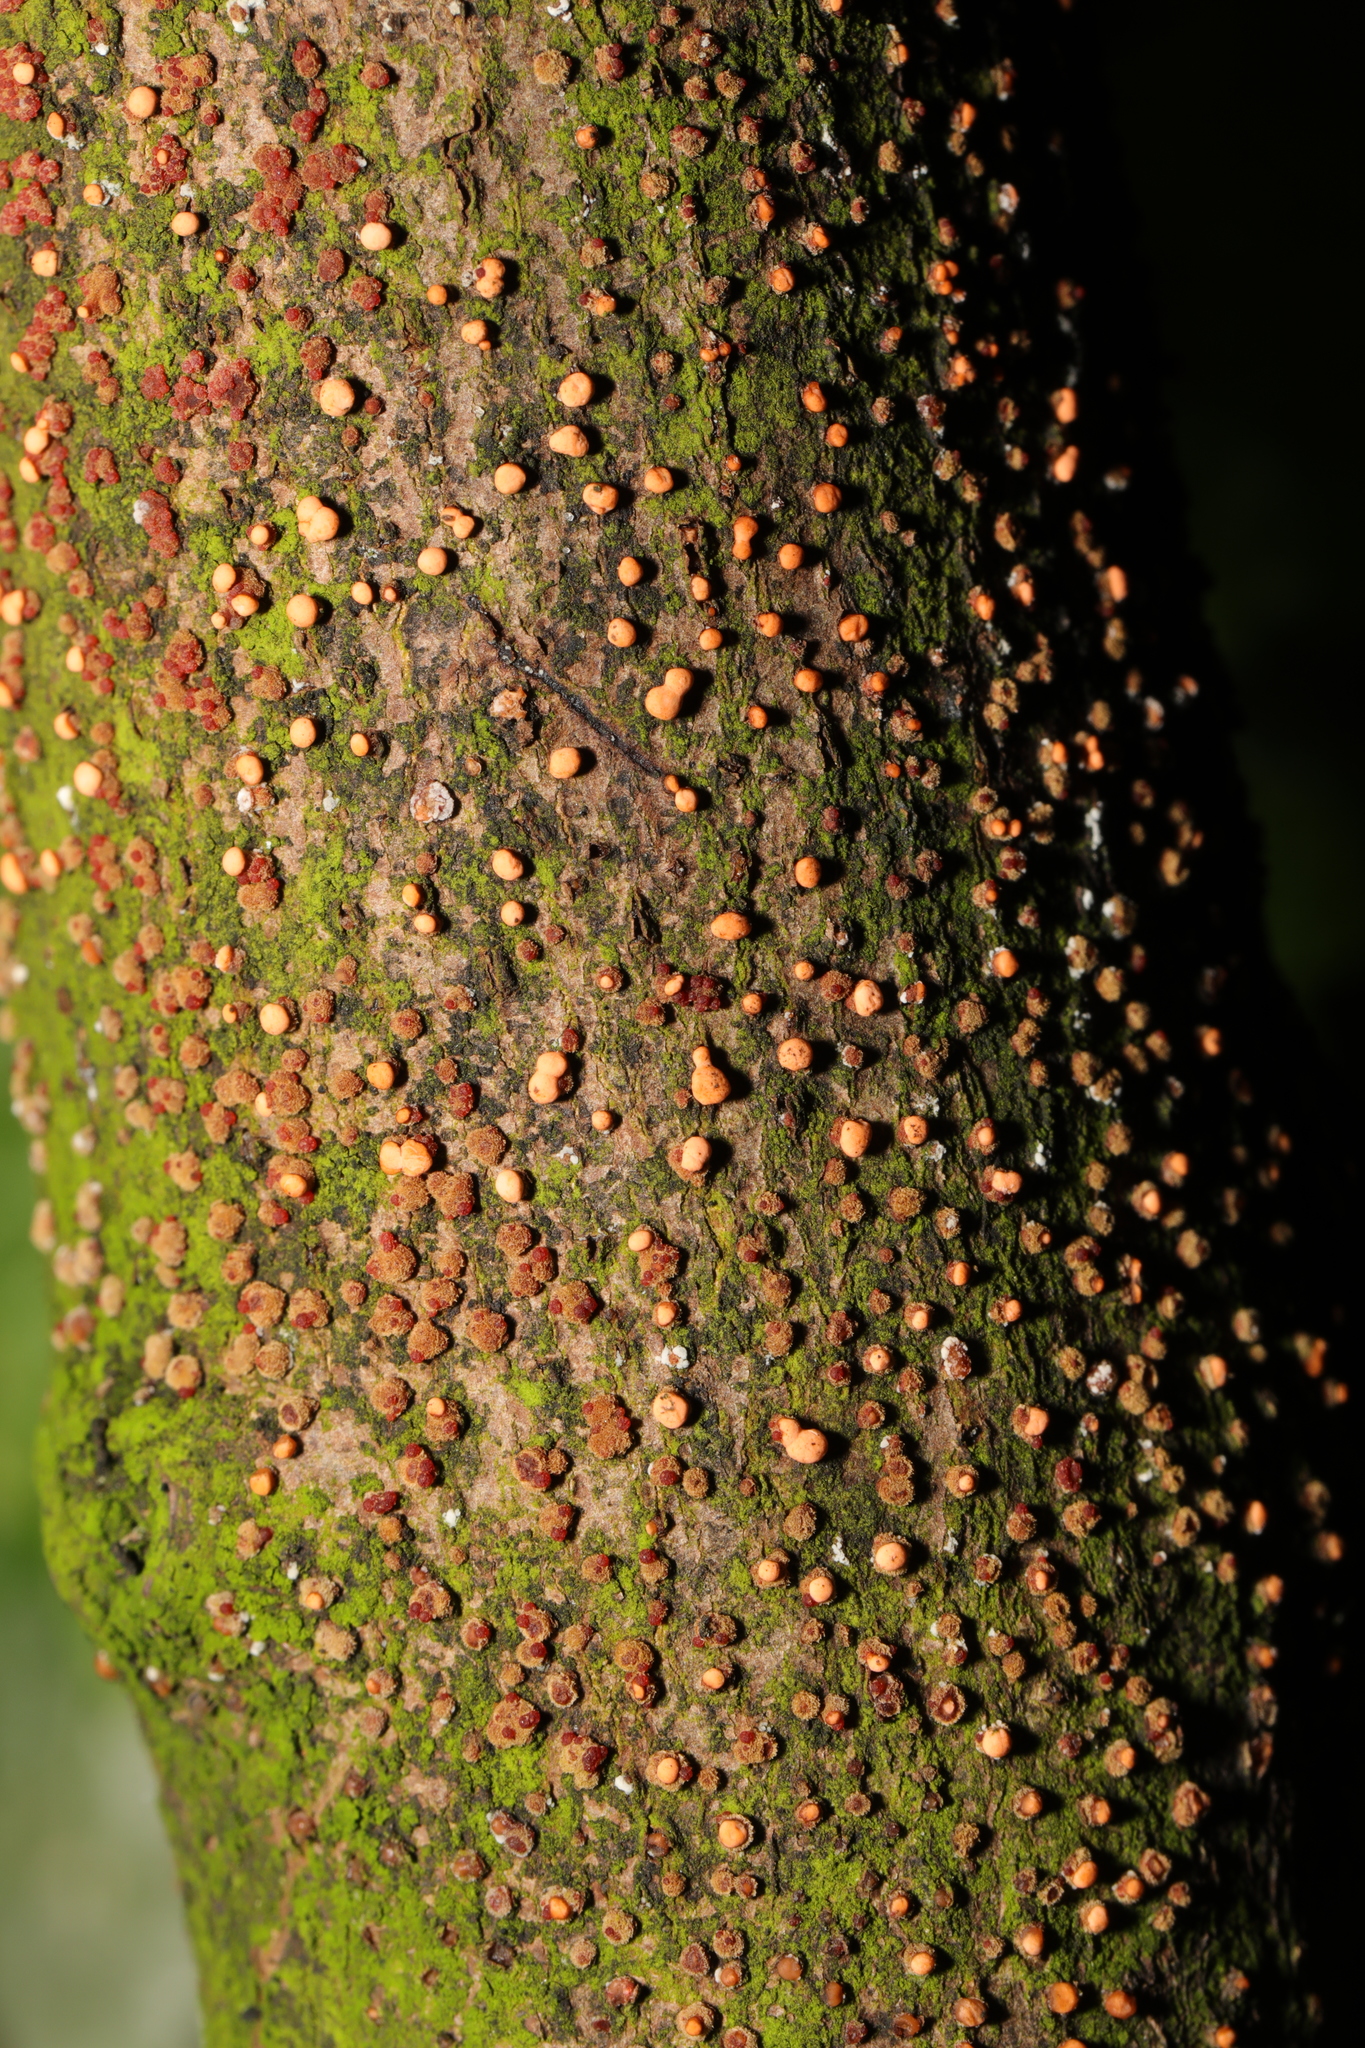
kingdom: Fungi
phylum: Ascomycota
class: Sordariomycetes
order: Hypocreales
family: Nectriaceae
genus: Nectria
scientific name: Nectria cinnabarina
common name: Coral spot
